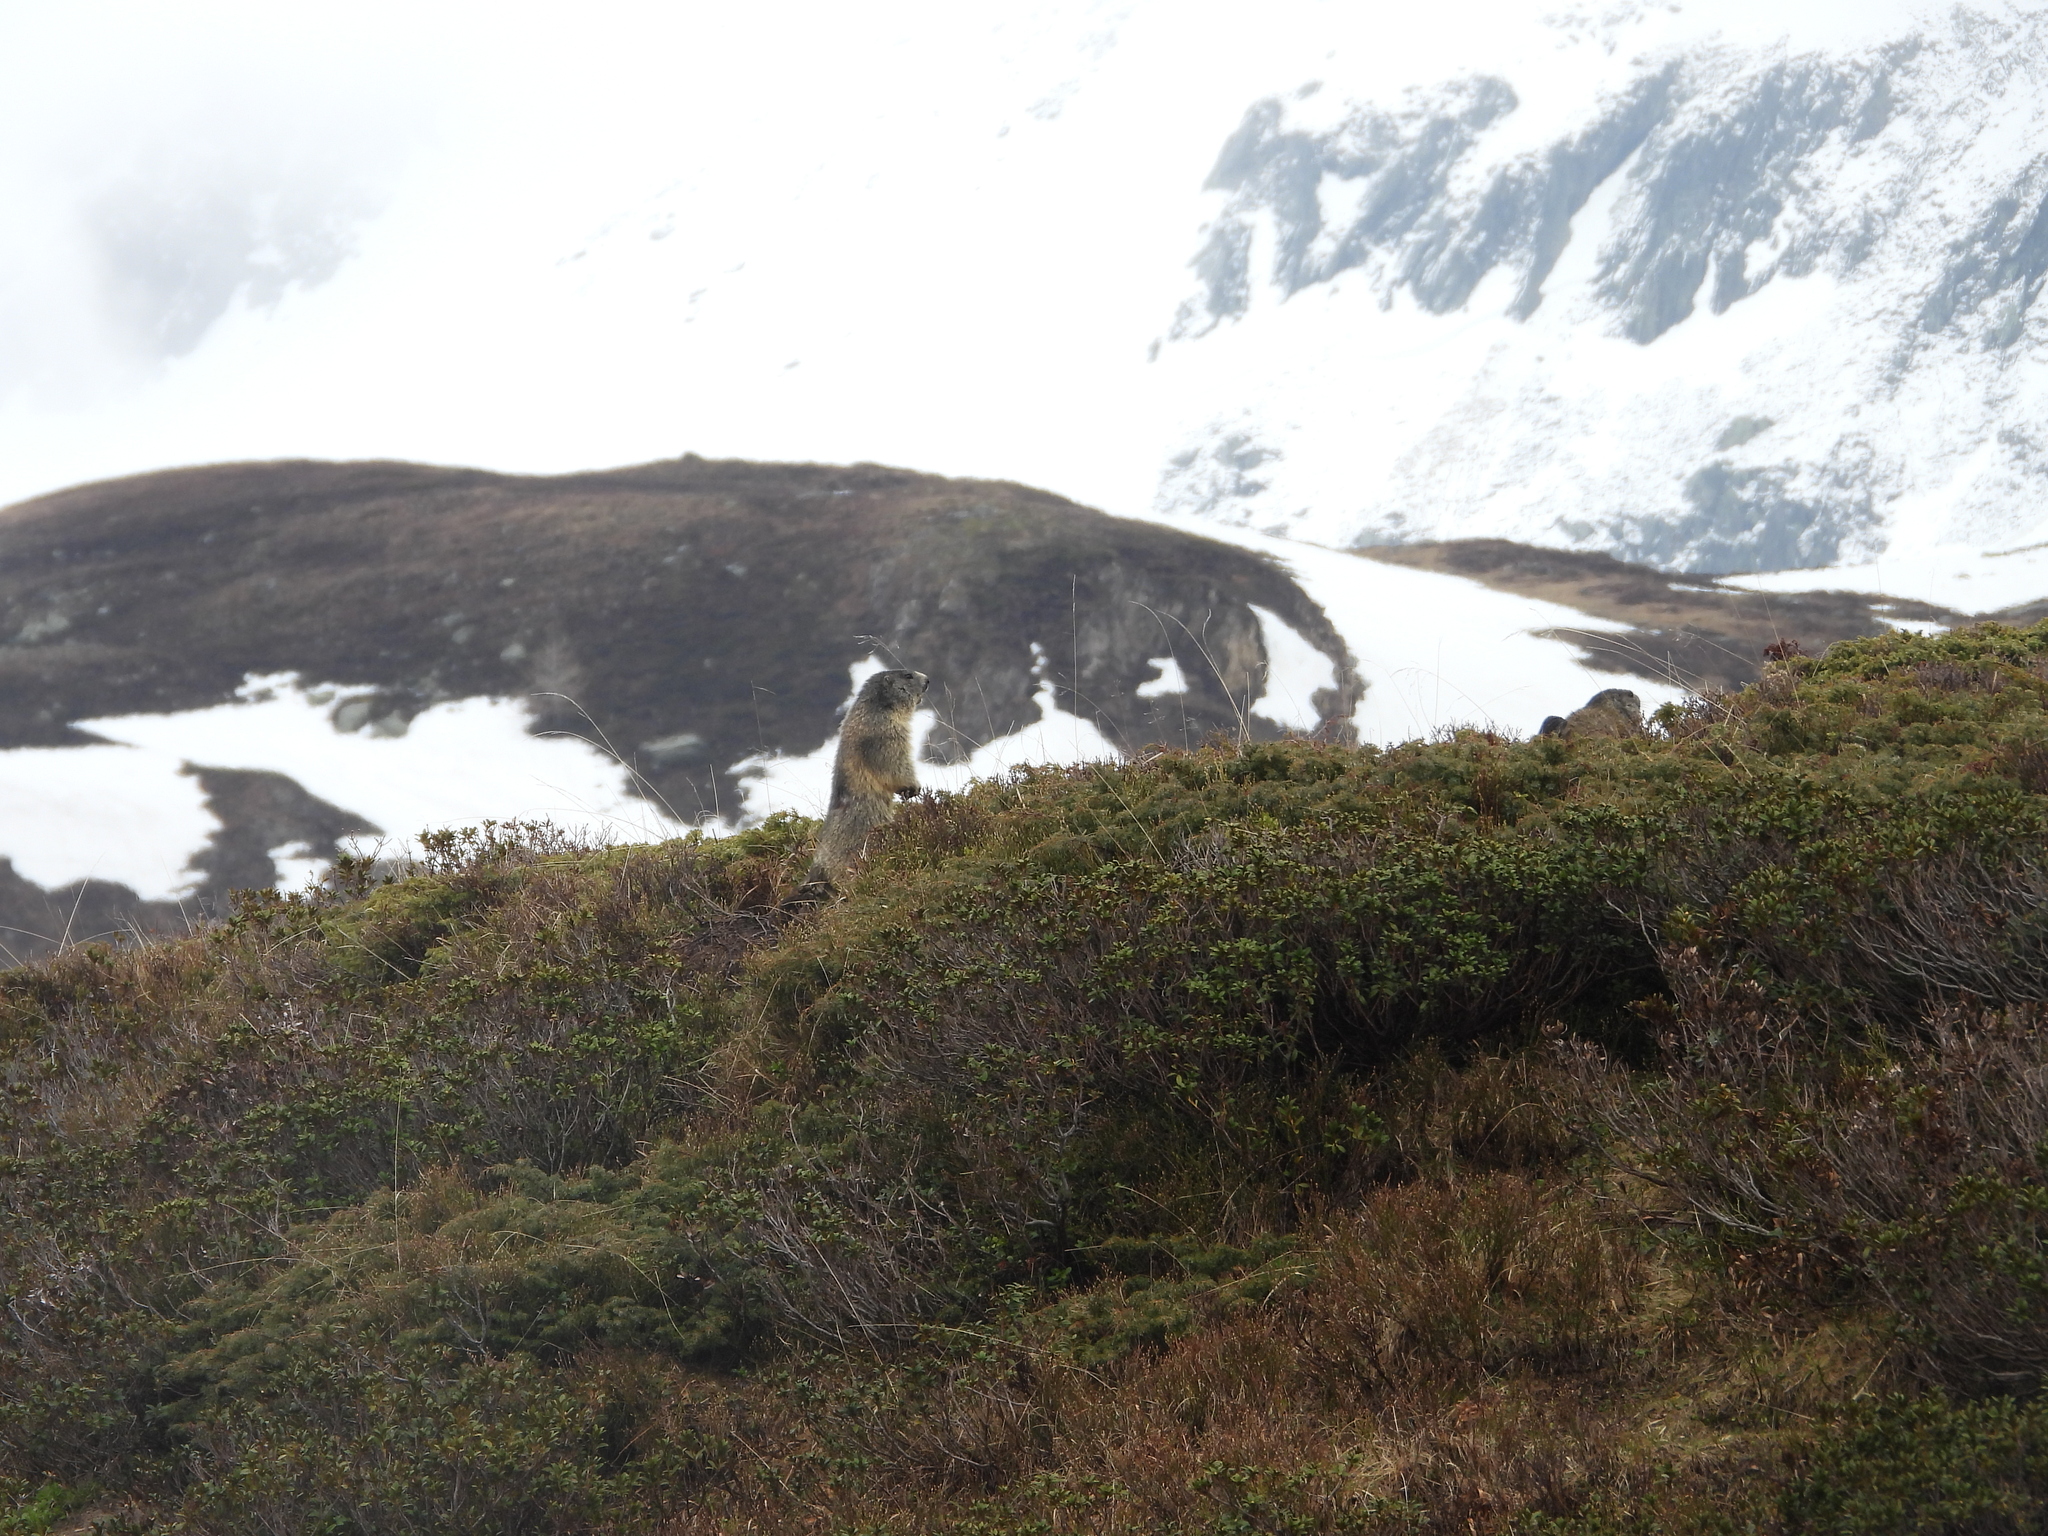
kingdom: Animalia
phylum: Chordata
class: Mammalia
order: Rodentia
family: Sciuridae
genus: Marmota
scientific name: Marmota marmota
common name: Alpine marmot
